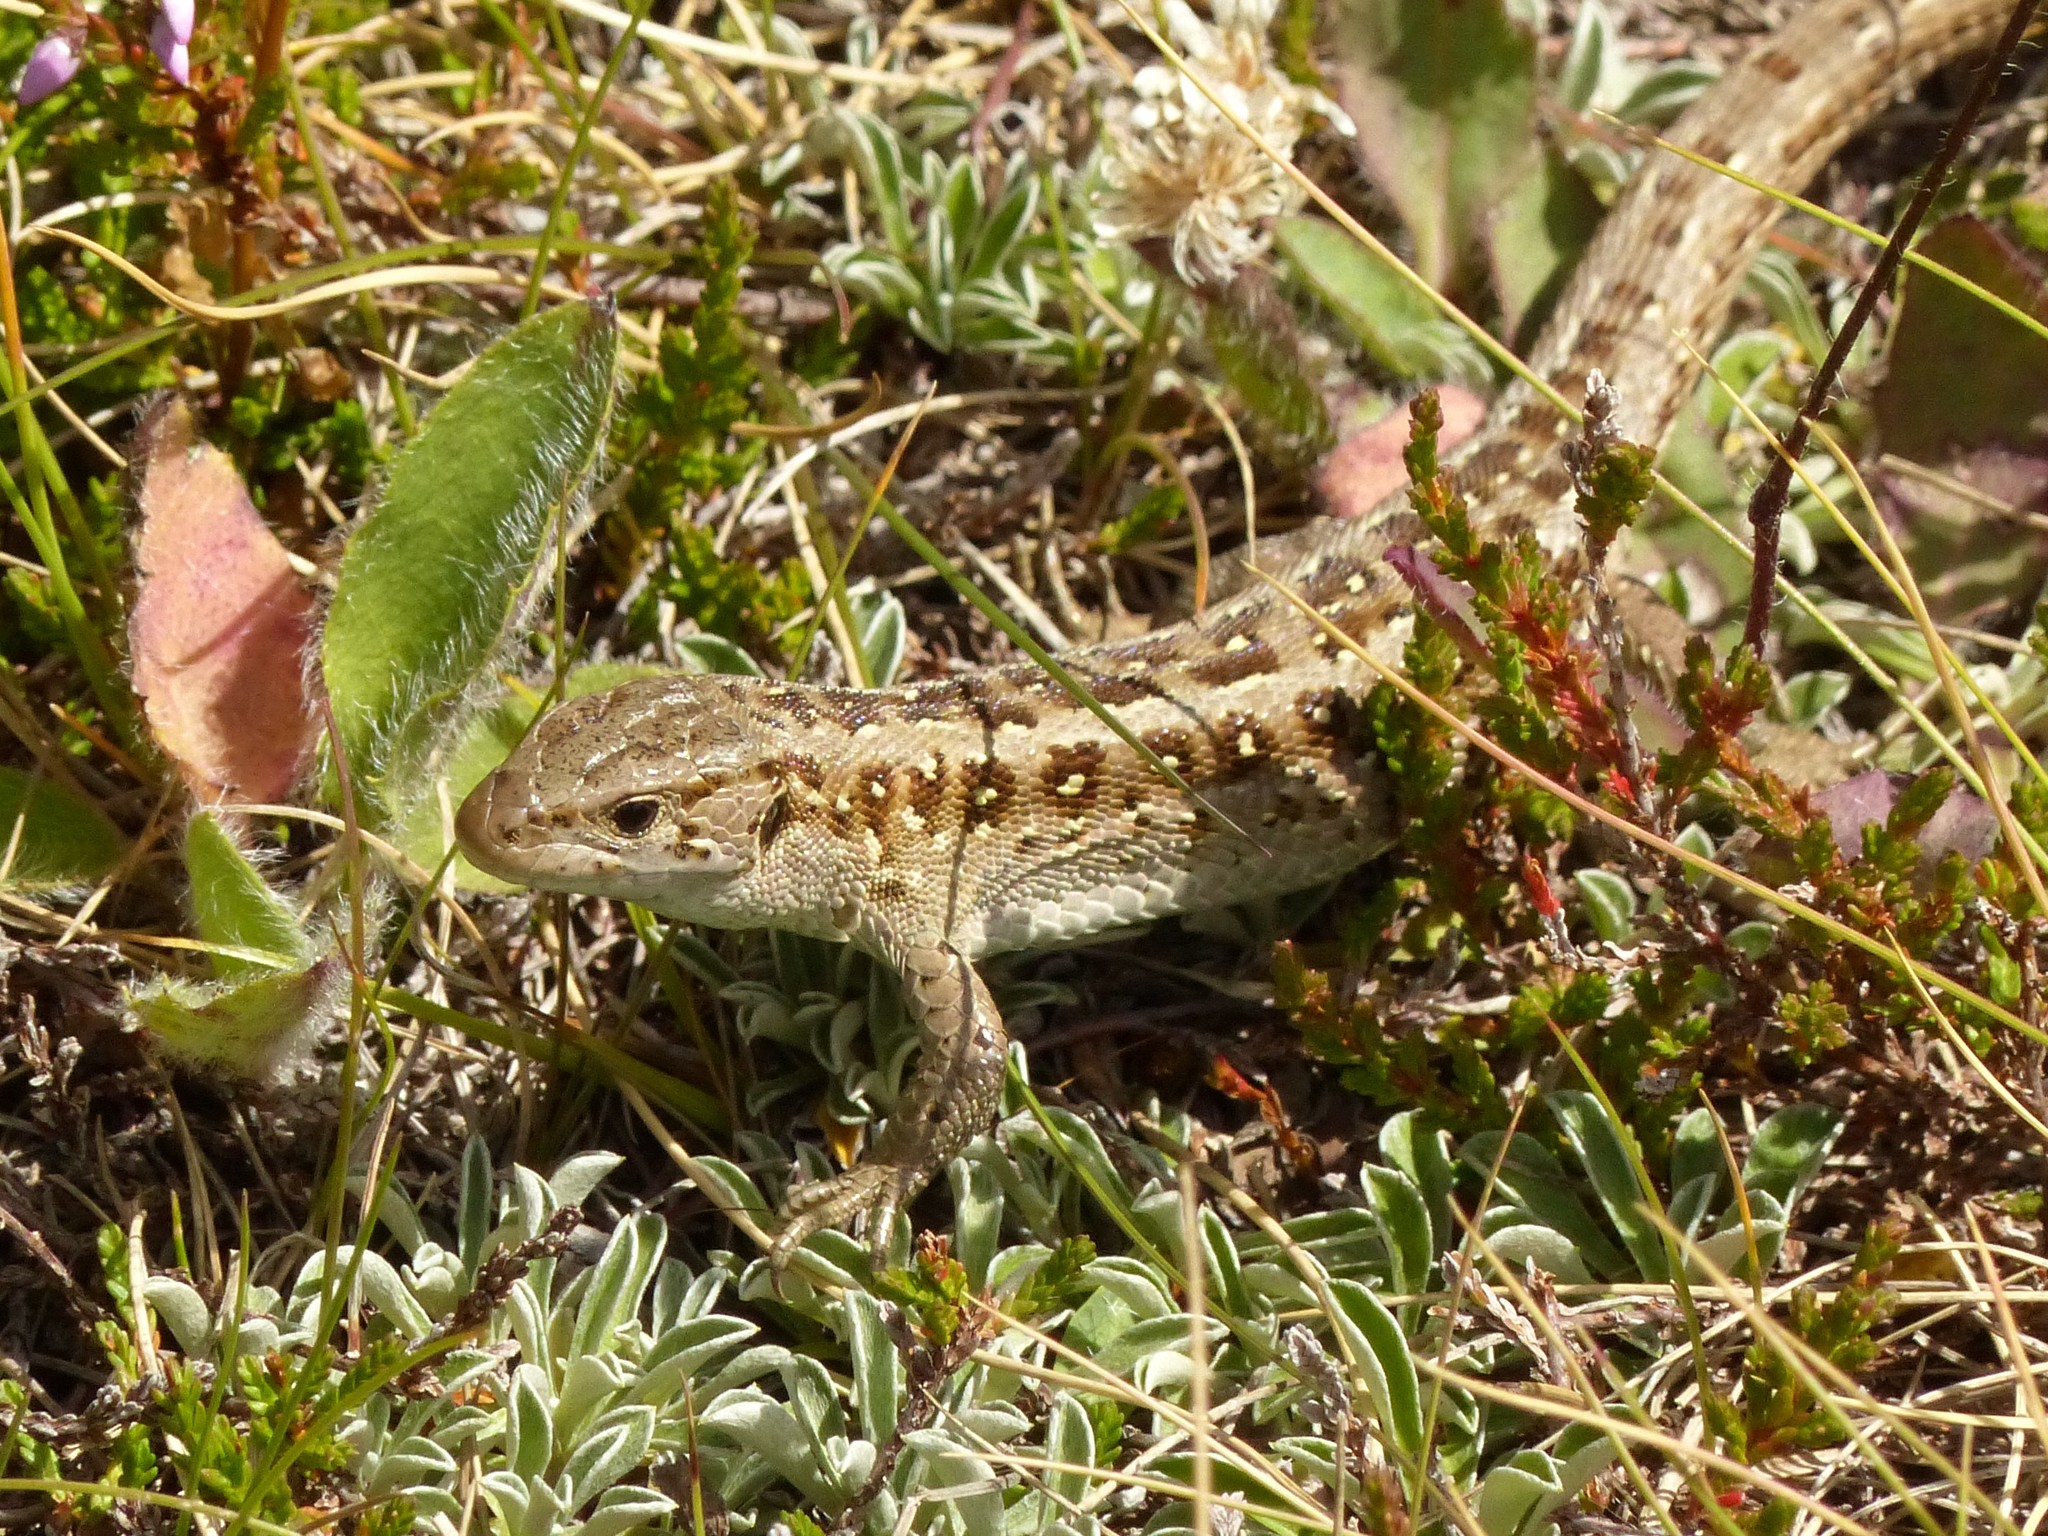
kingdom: Animalia
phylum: Chordata
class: Squamata
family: Lacertidae
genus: Lacerta
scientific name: Lacerta agilis
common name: Sand lizard
